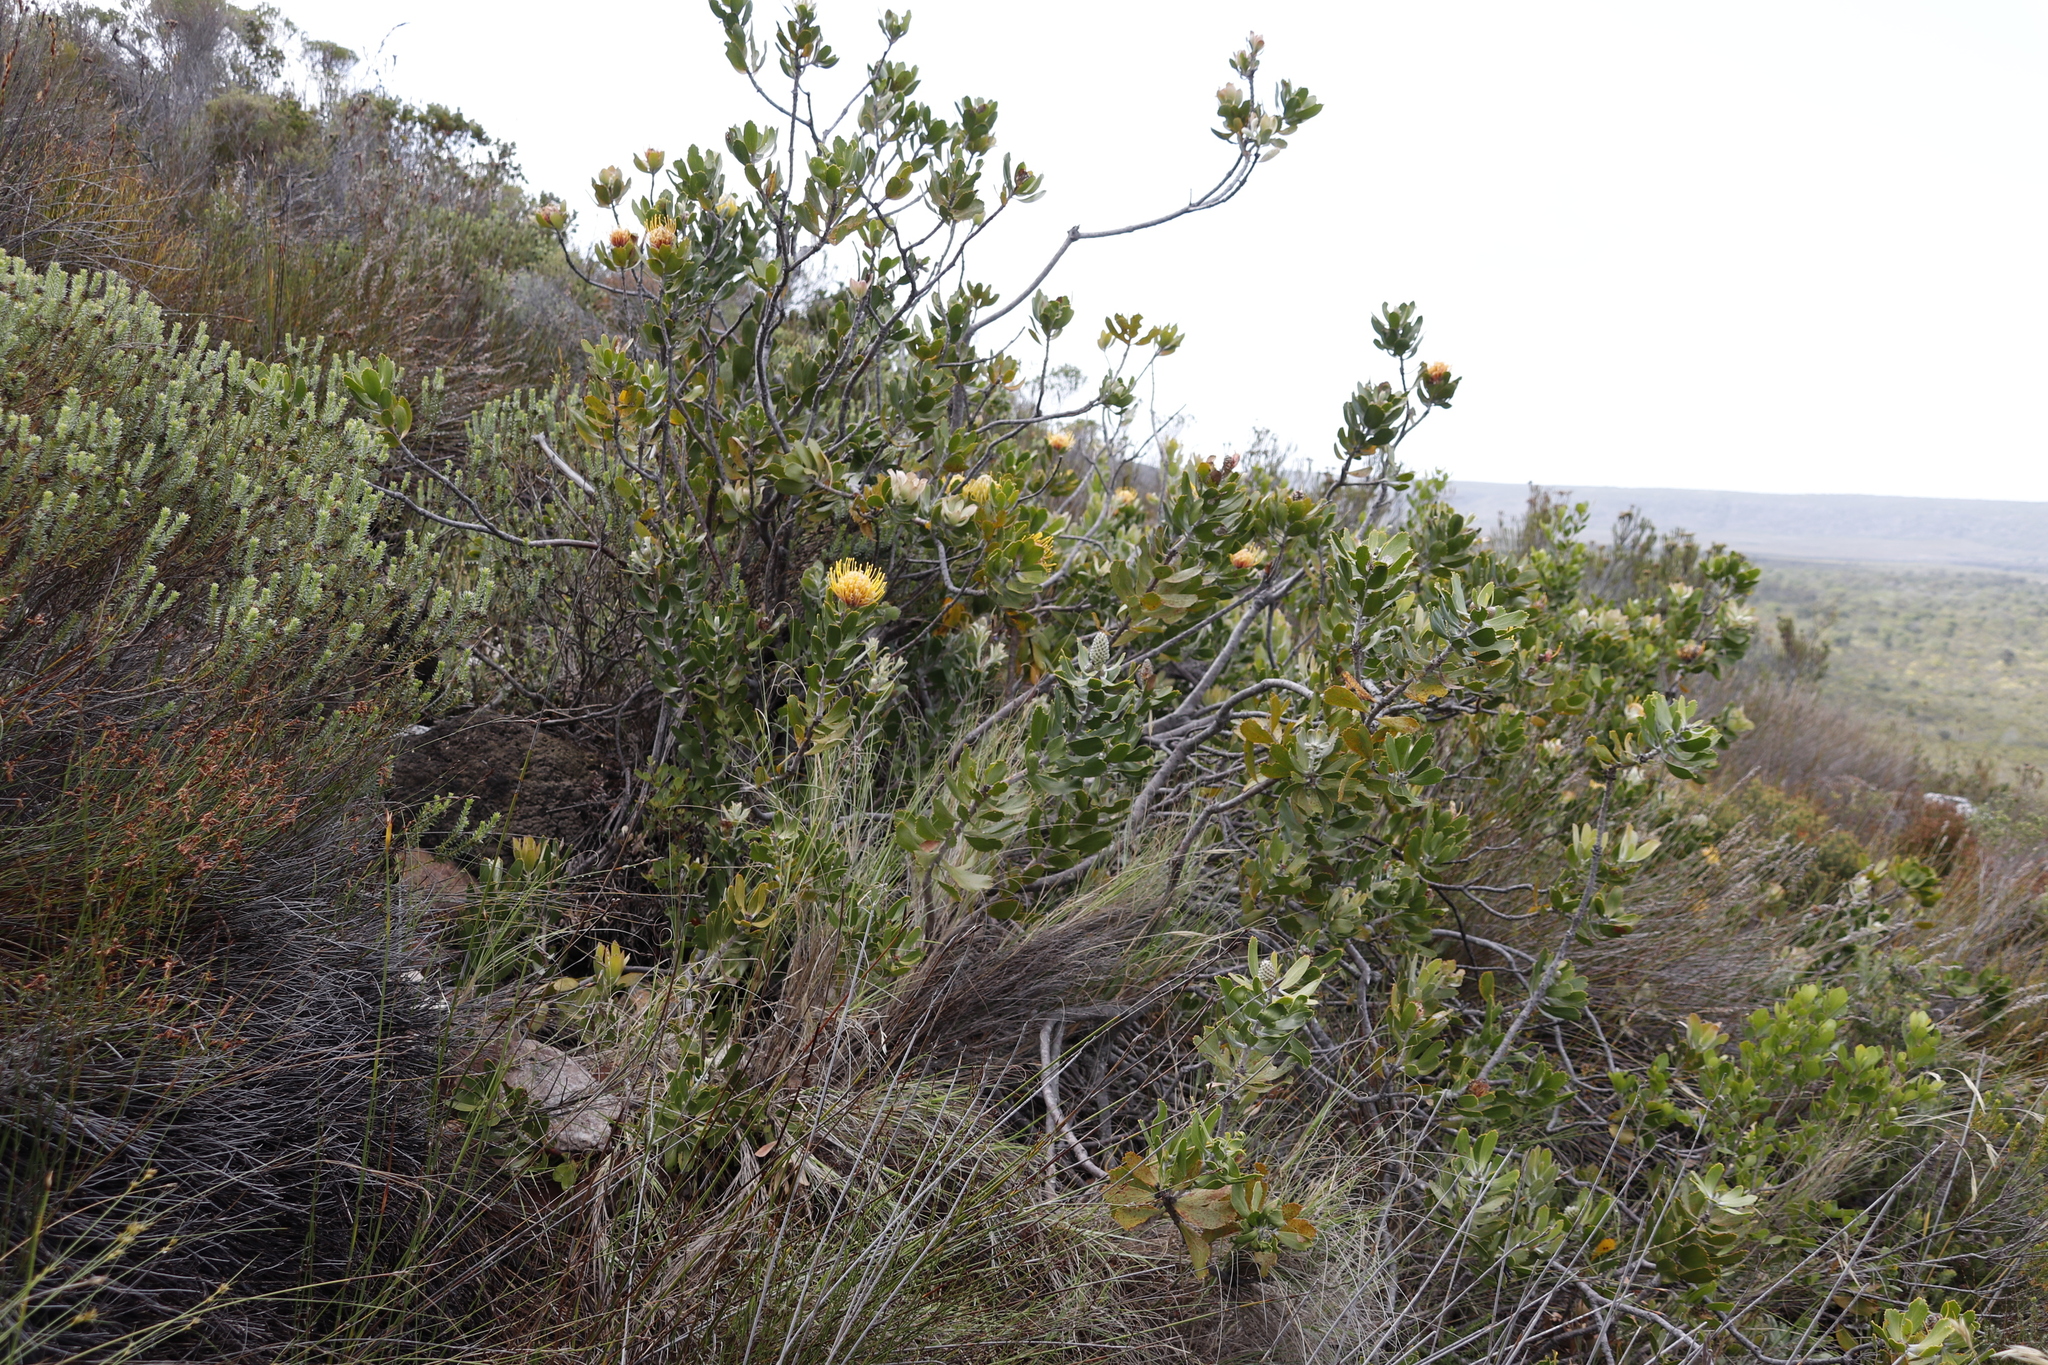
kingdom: Plantae
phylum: Tracheophyta
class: Magnoliopsida
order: Proteales
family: Proteaceae
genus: Leucospermum
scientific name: Leucospermum cuneiforme
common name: Common pincushion
